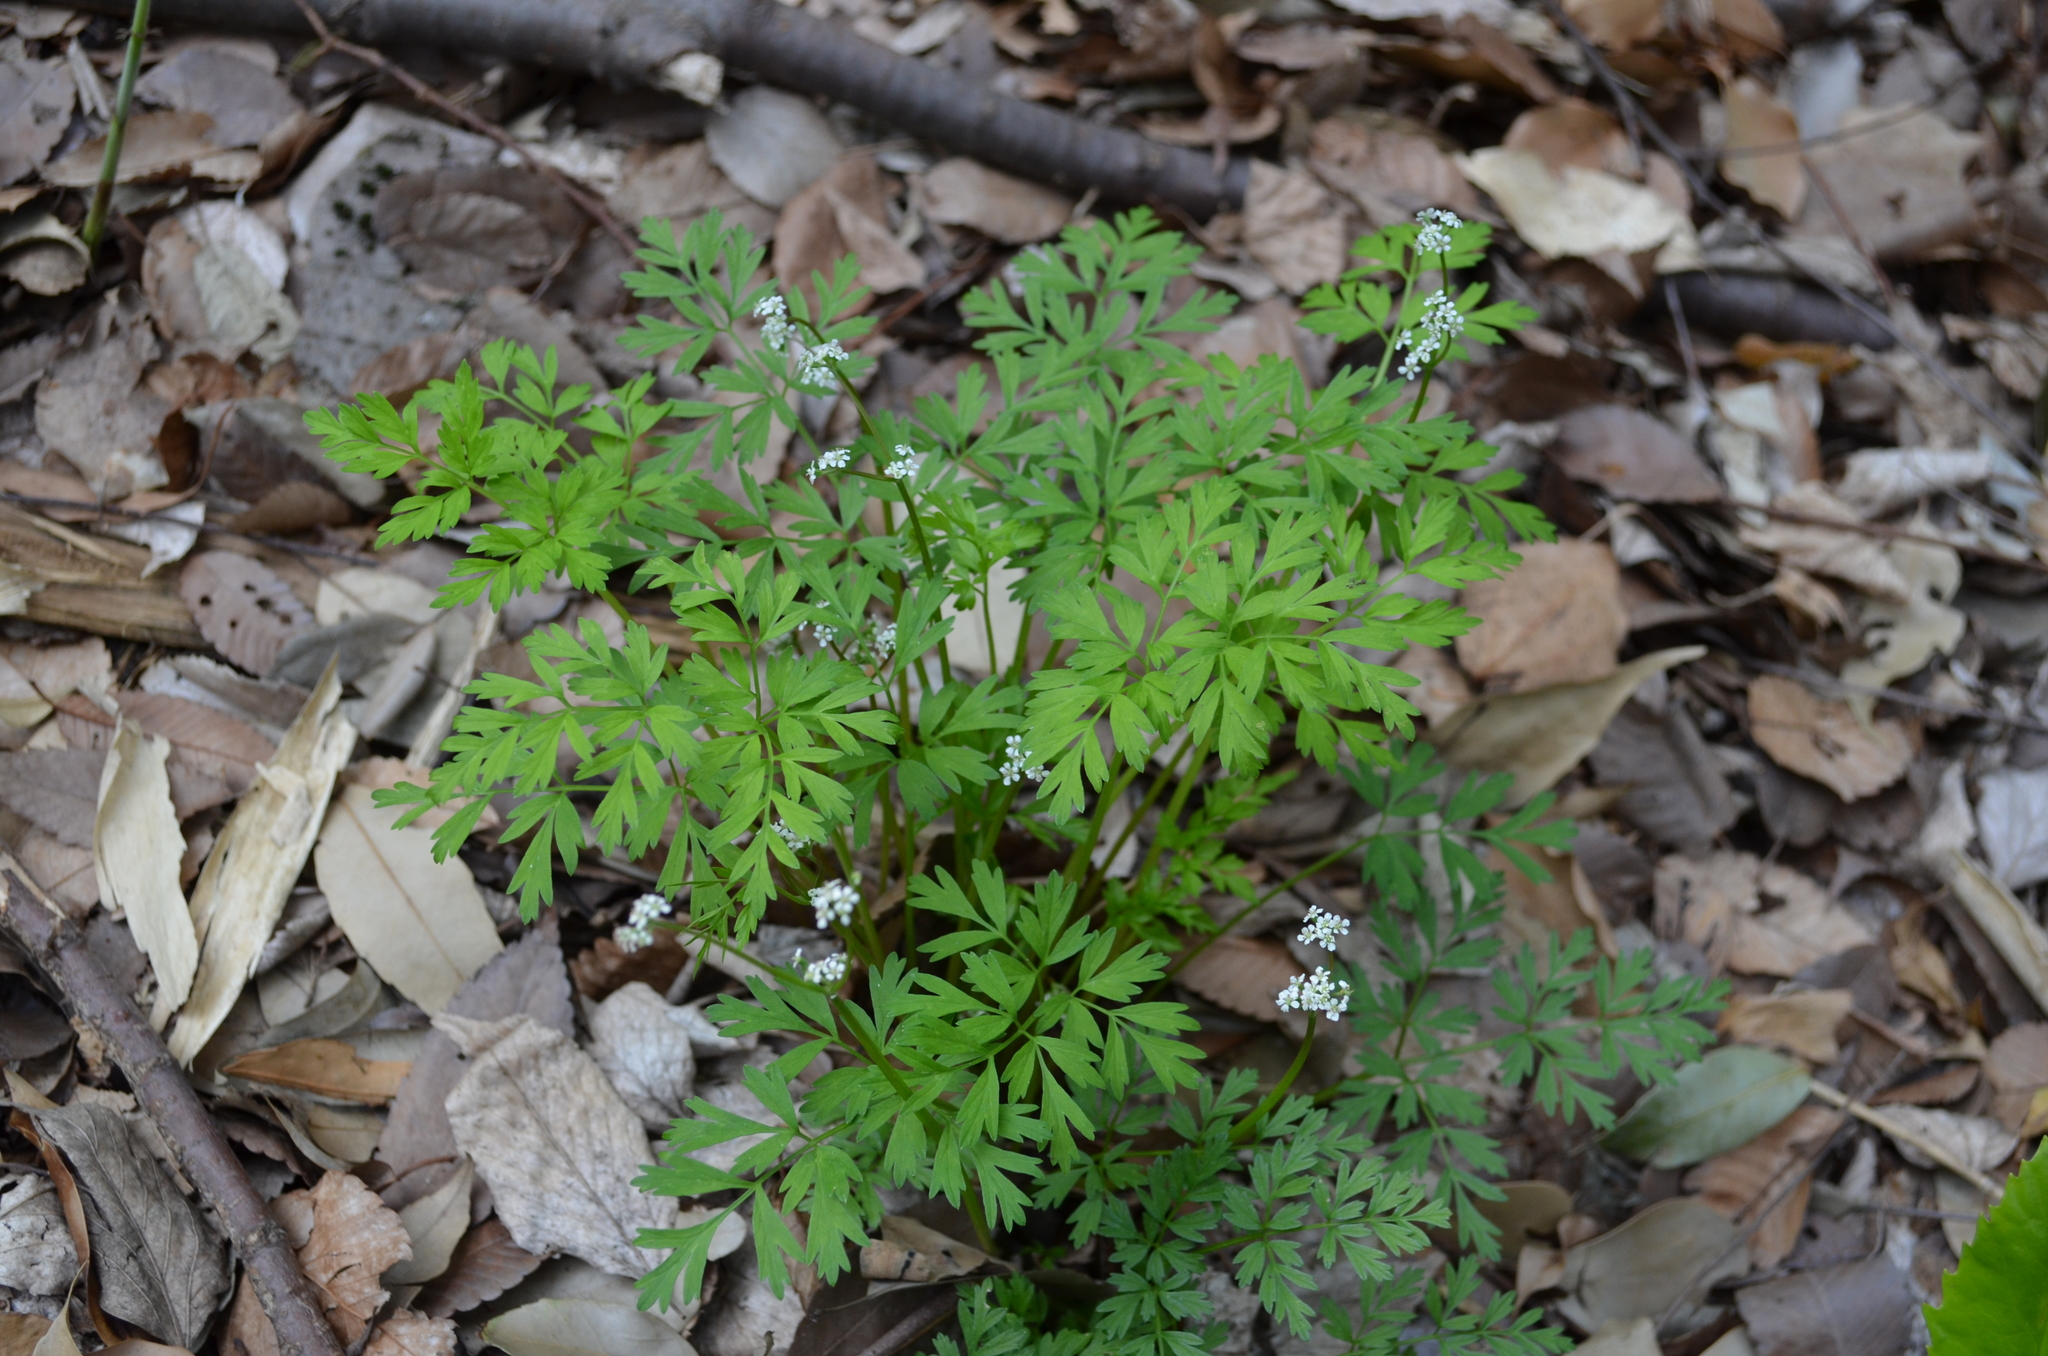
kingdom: Plantae
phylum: Tracheophyta
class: Magnoliopsida
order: Apiales
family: Apiaceae
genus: Aegopodium
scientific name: Aegopodium decumbens
